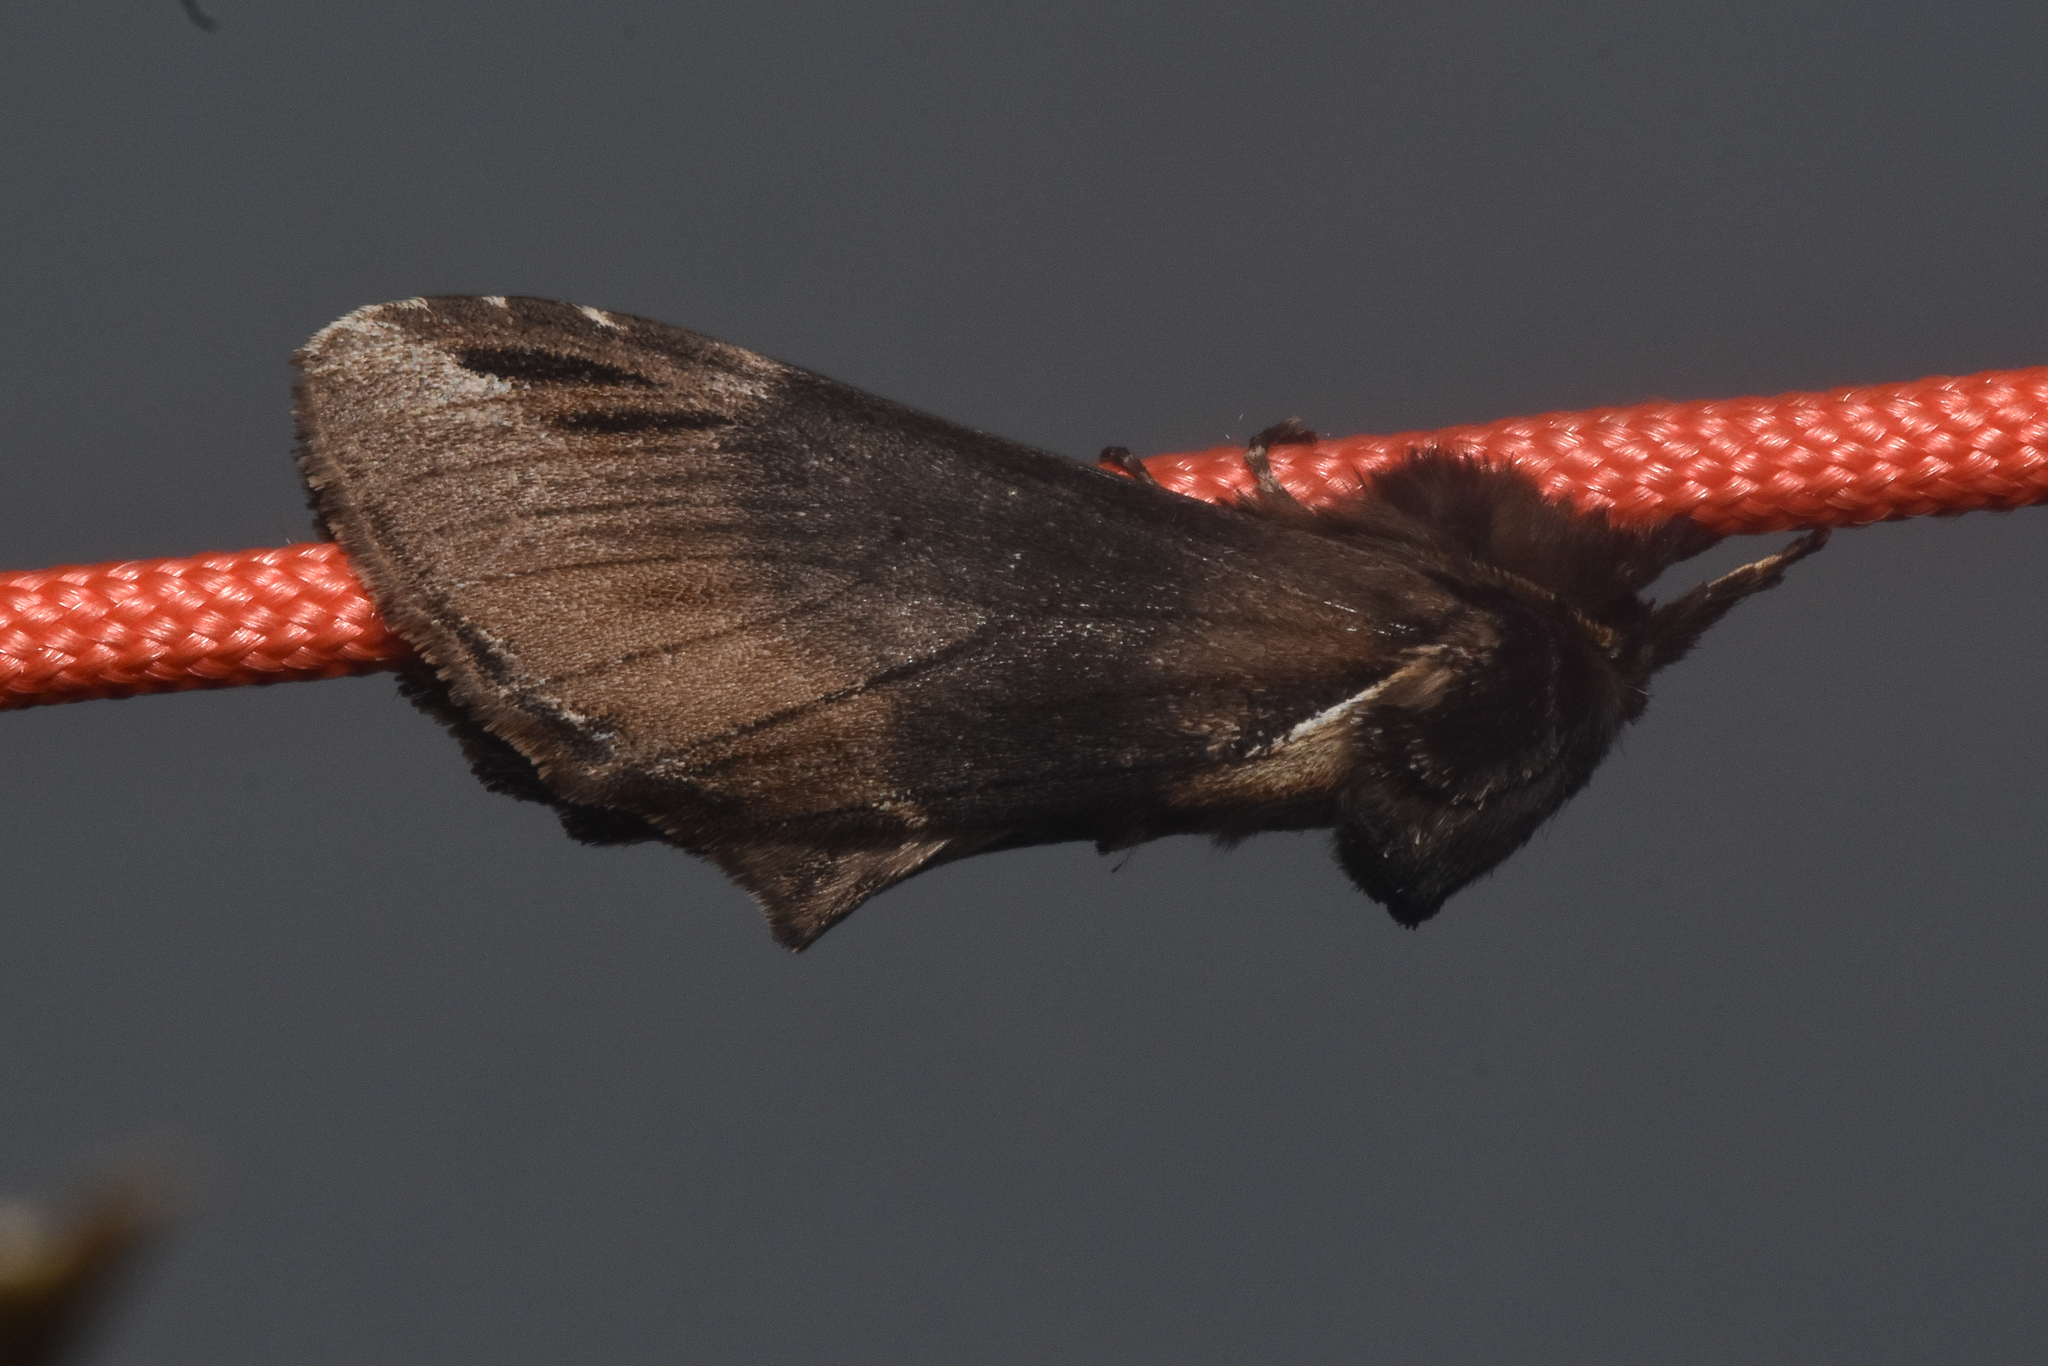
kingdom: Animalia
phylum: Arthropoda
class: Insecta
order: Lepidoptera
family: Notodontidae
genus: Pheosidea
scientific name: Pheosidea elegans
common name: Elegant prominent
